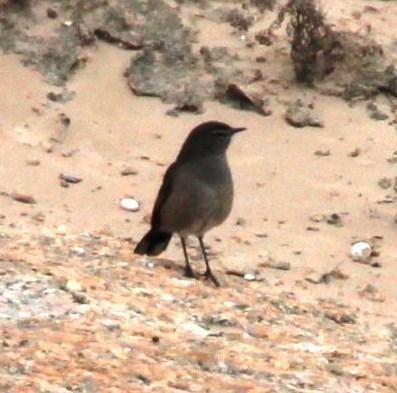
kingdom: Animalia
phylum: Chordata
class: Aves
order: Passeriformes
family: Muscicapidae
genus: Erythropygia
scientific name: Erythropygia coryphoeus
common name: Karoo scrub robin
